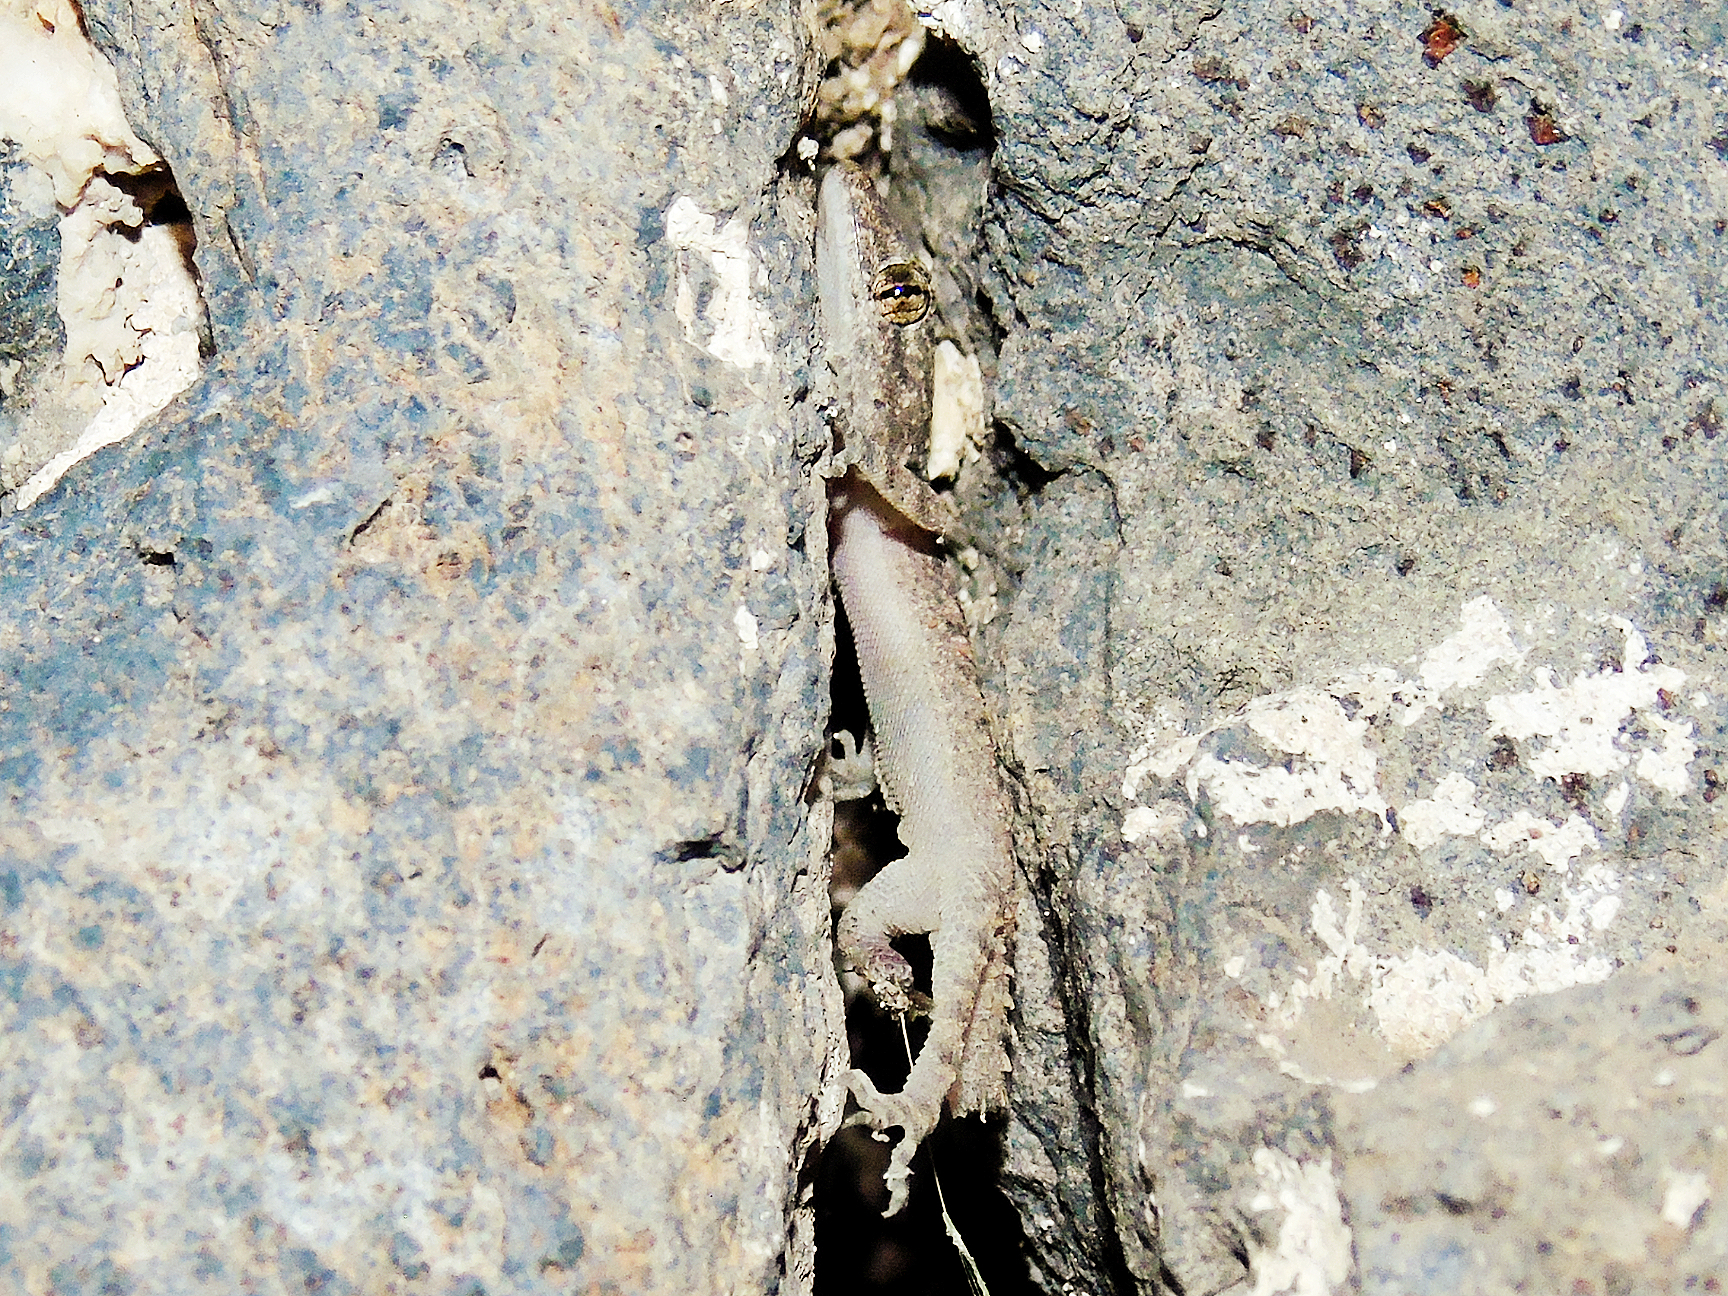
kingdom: Animalia
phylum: Chordata
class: Squamata
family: Gekkonidae
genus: Mediodactylus
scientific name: Mediodactylus heterocercus
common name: Asia minor thin-toed gecko
